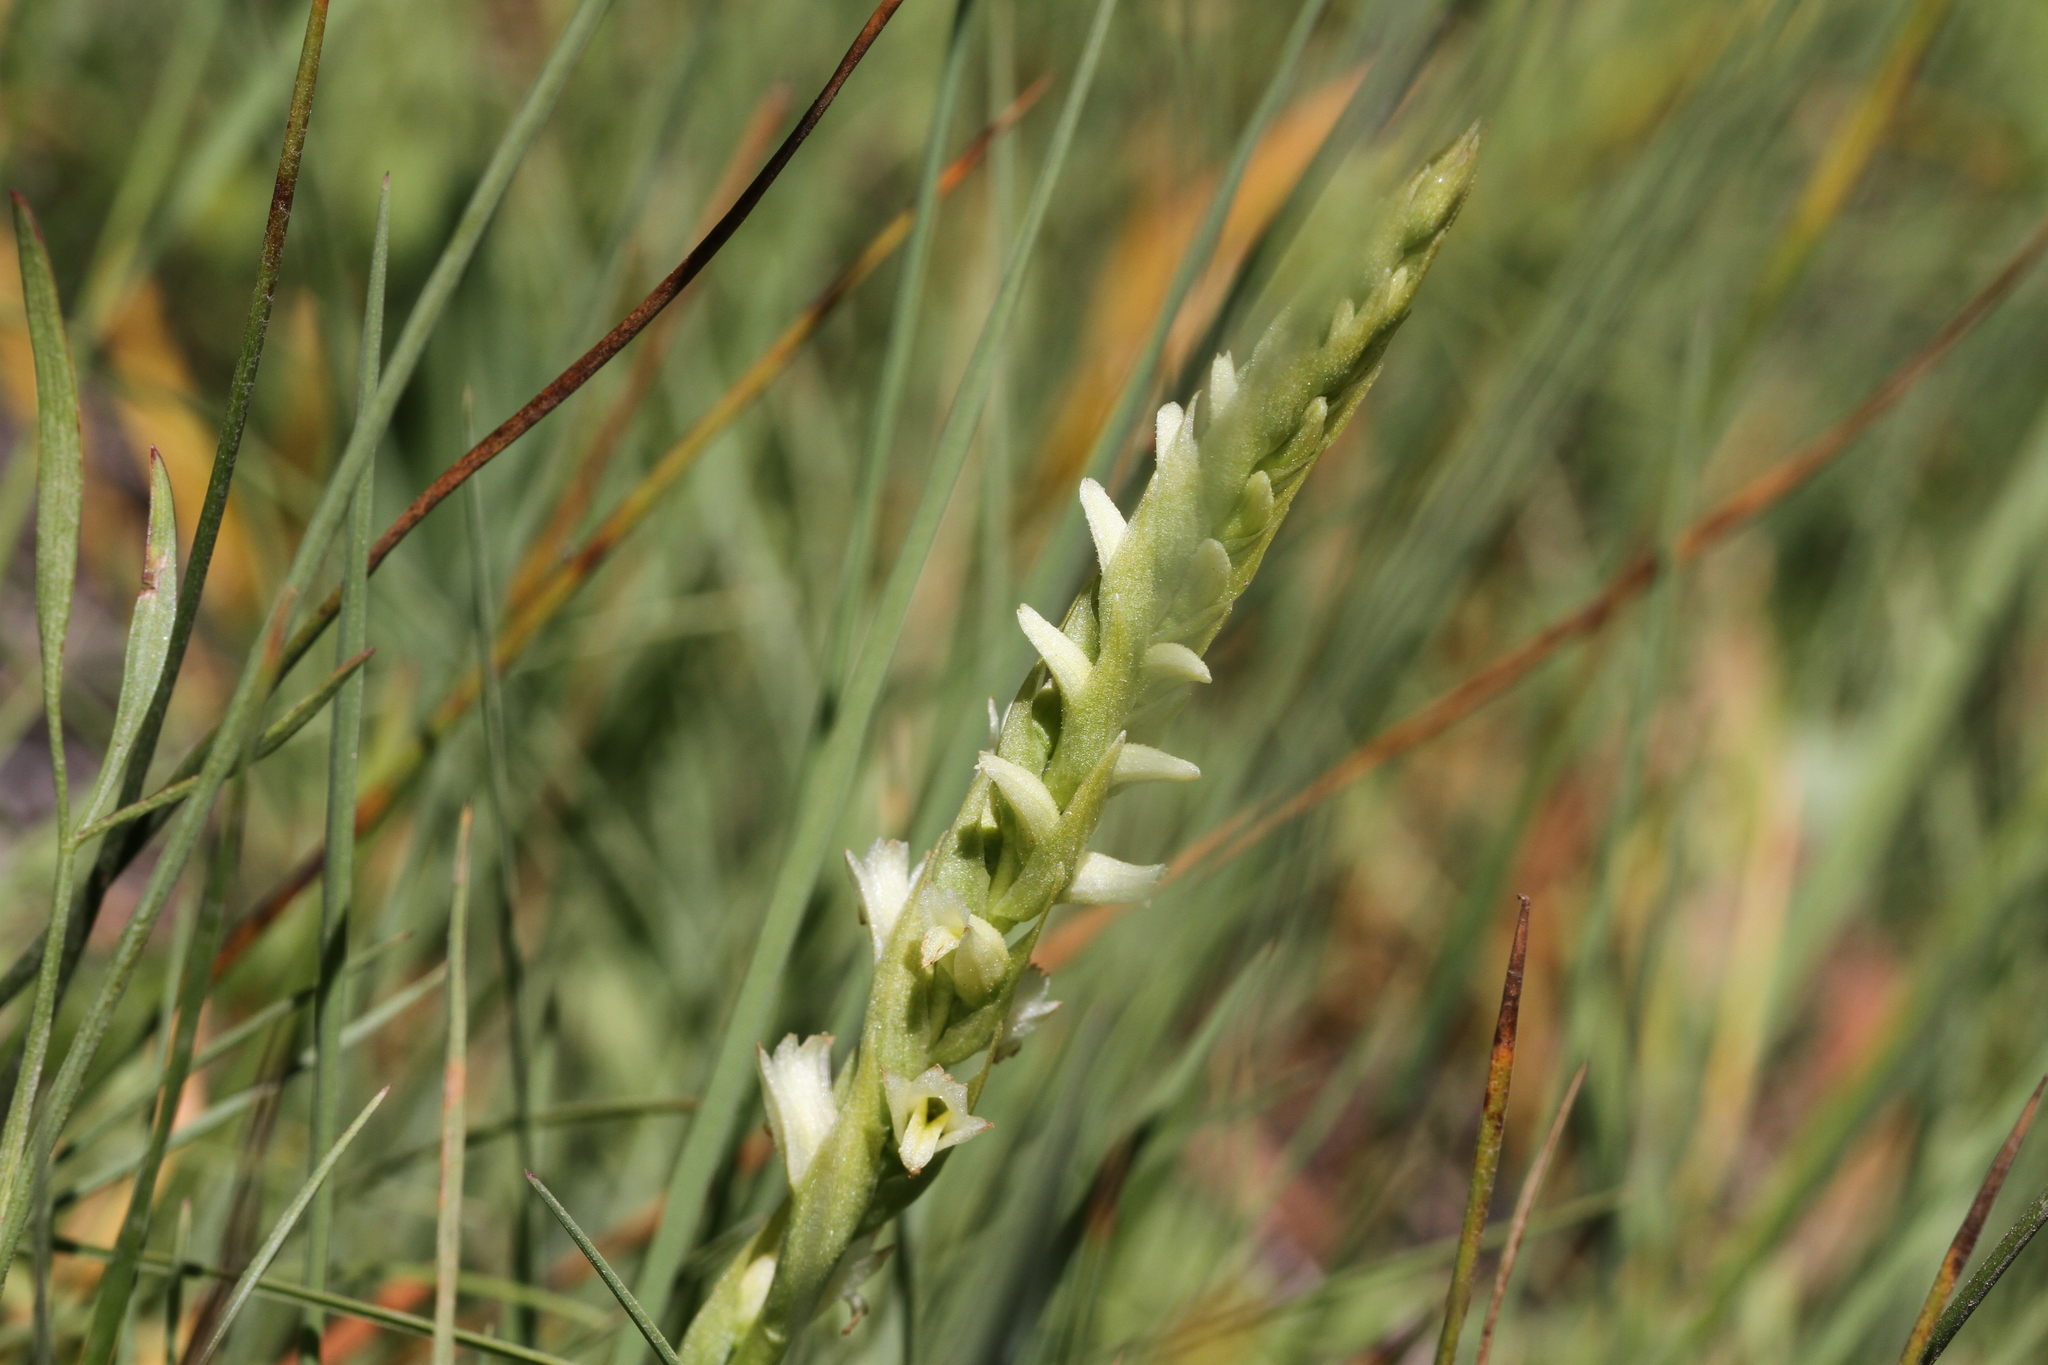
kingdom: Plantae
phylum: Tracheophyta
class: Liliopsida
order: Asparagales
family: Orchidaceae
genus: Spiranthes
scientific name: Spiranthes stellata
